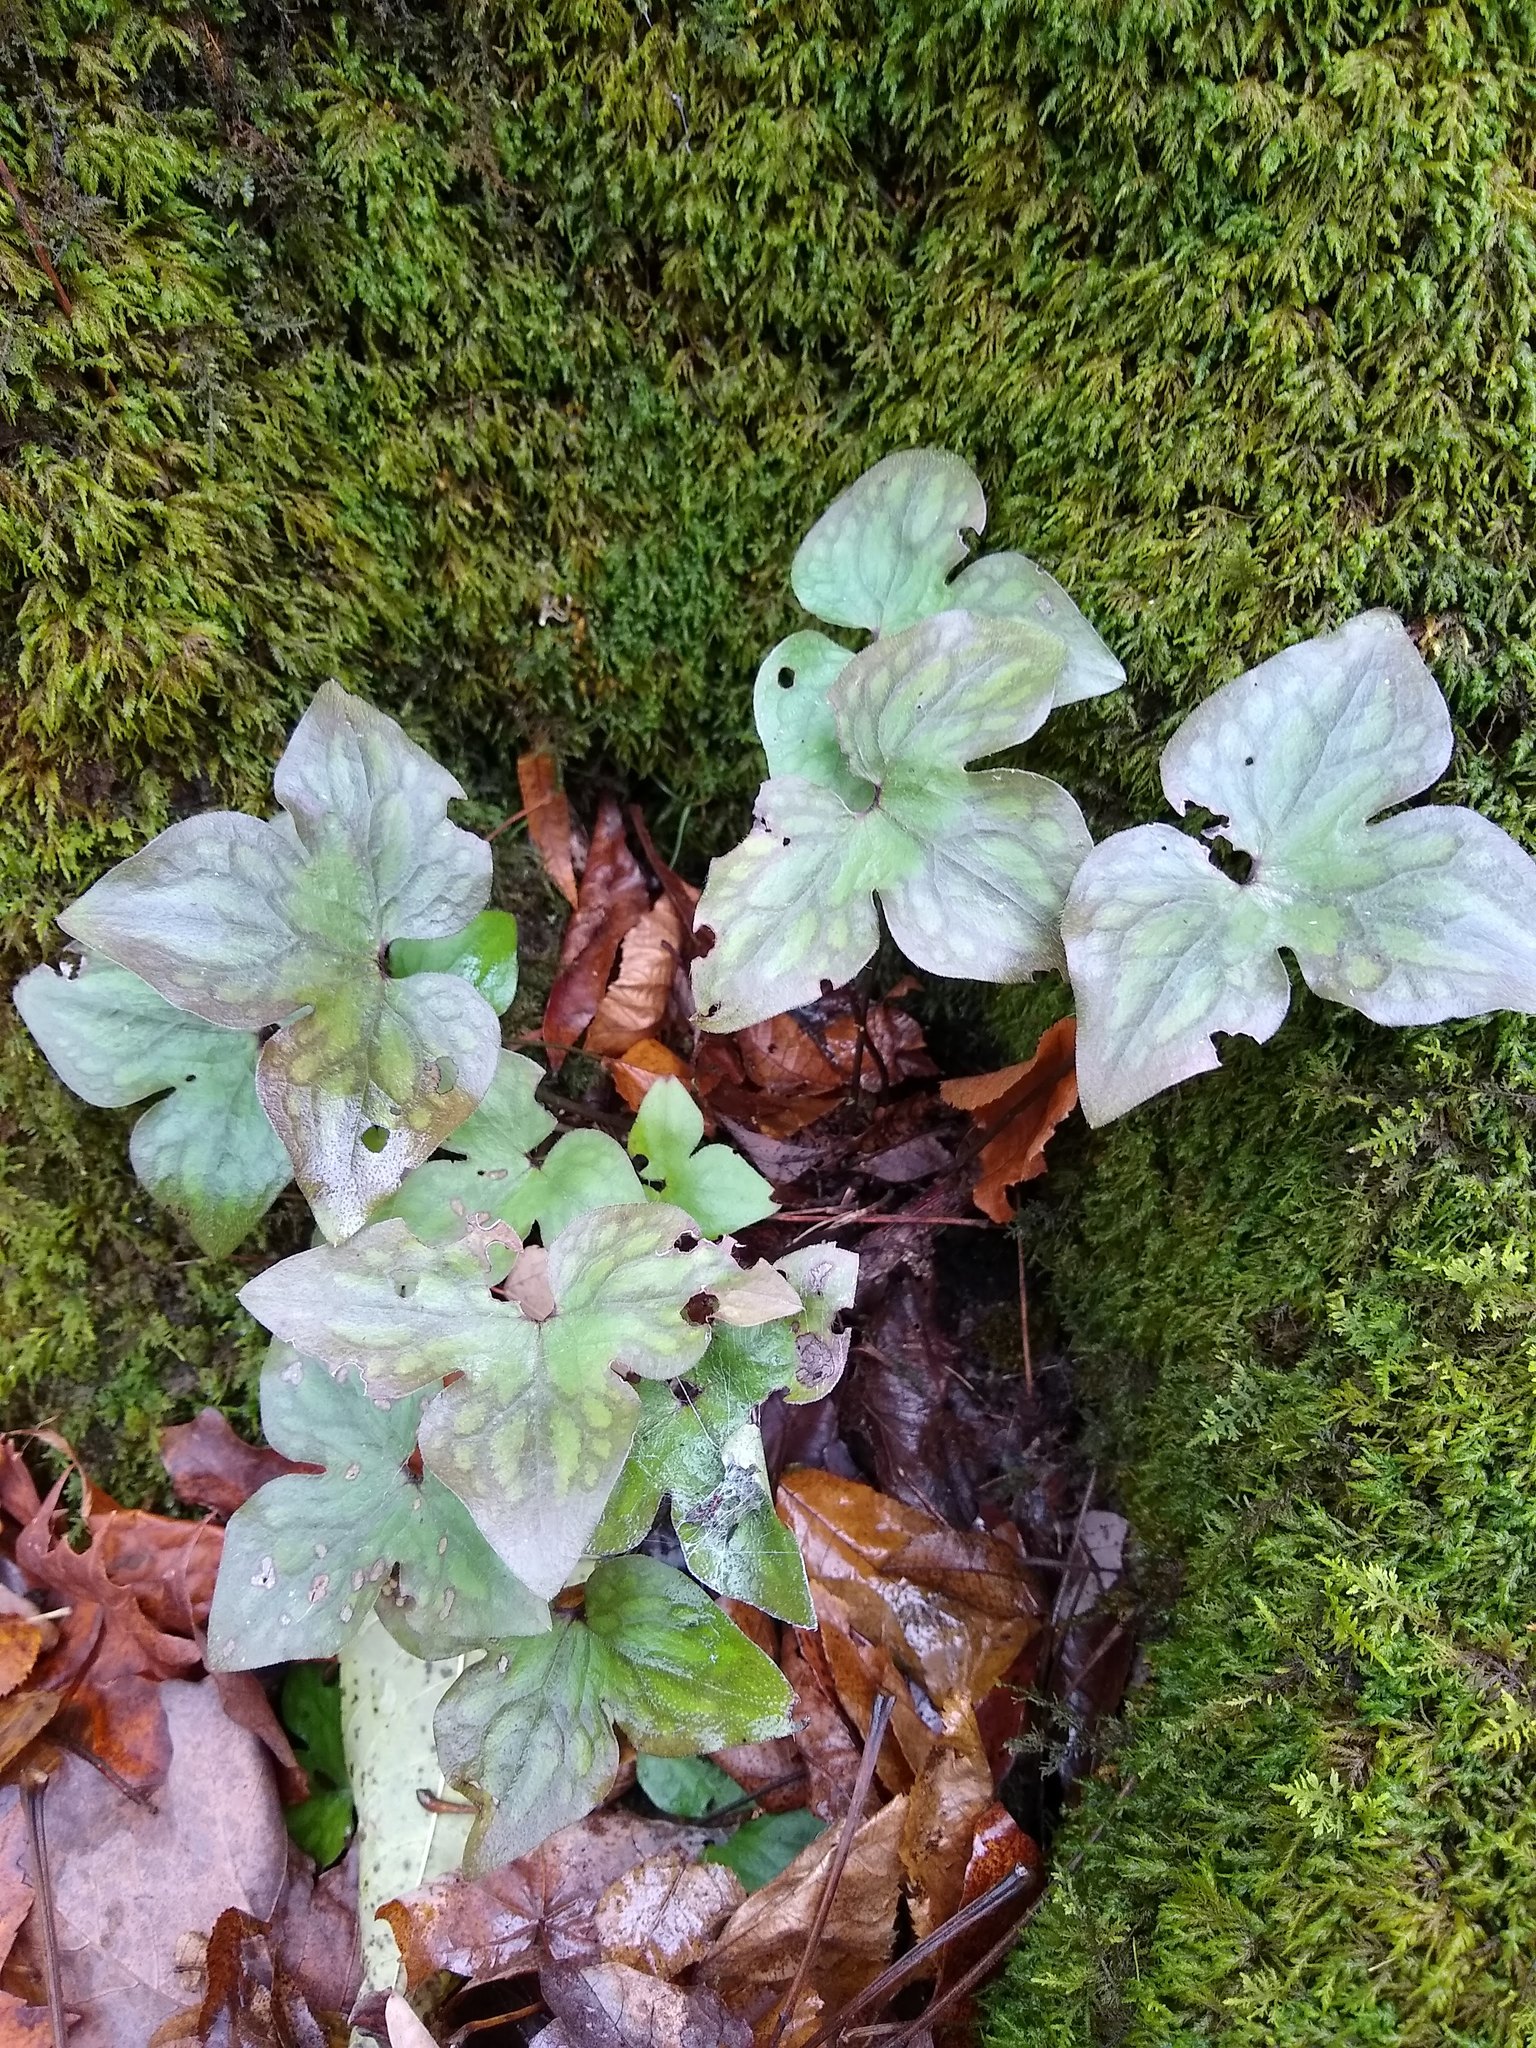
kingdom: Plantae
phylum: Tracheophyta
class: Magnoliopsida
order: Ranunculales
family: Ranunculaceae
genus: Hepatica
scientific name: Hepatica acutiloba
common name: Sharp-lobed hepatica
